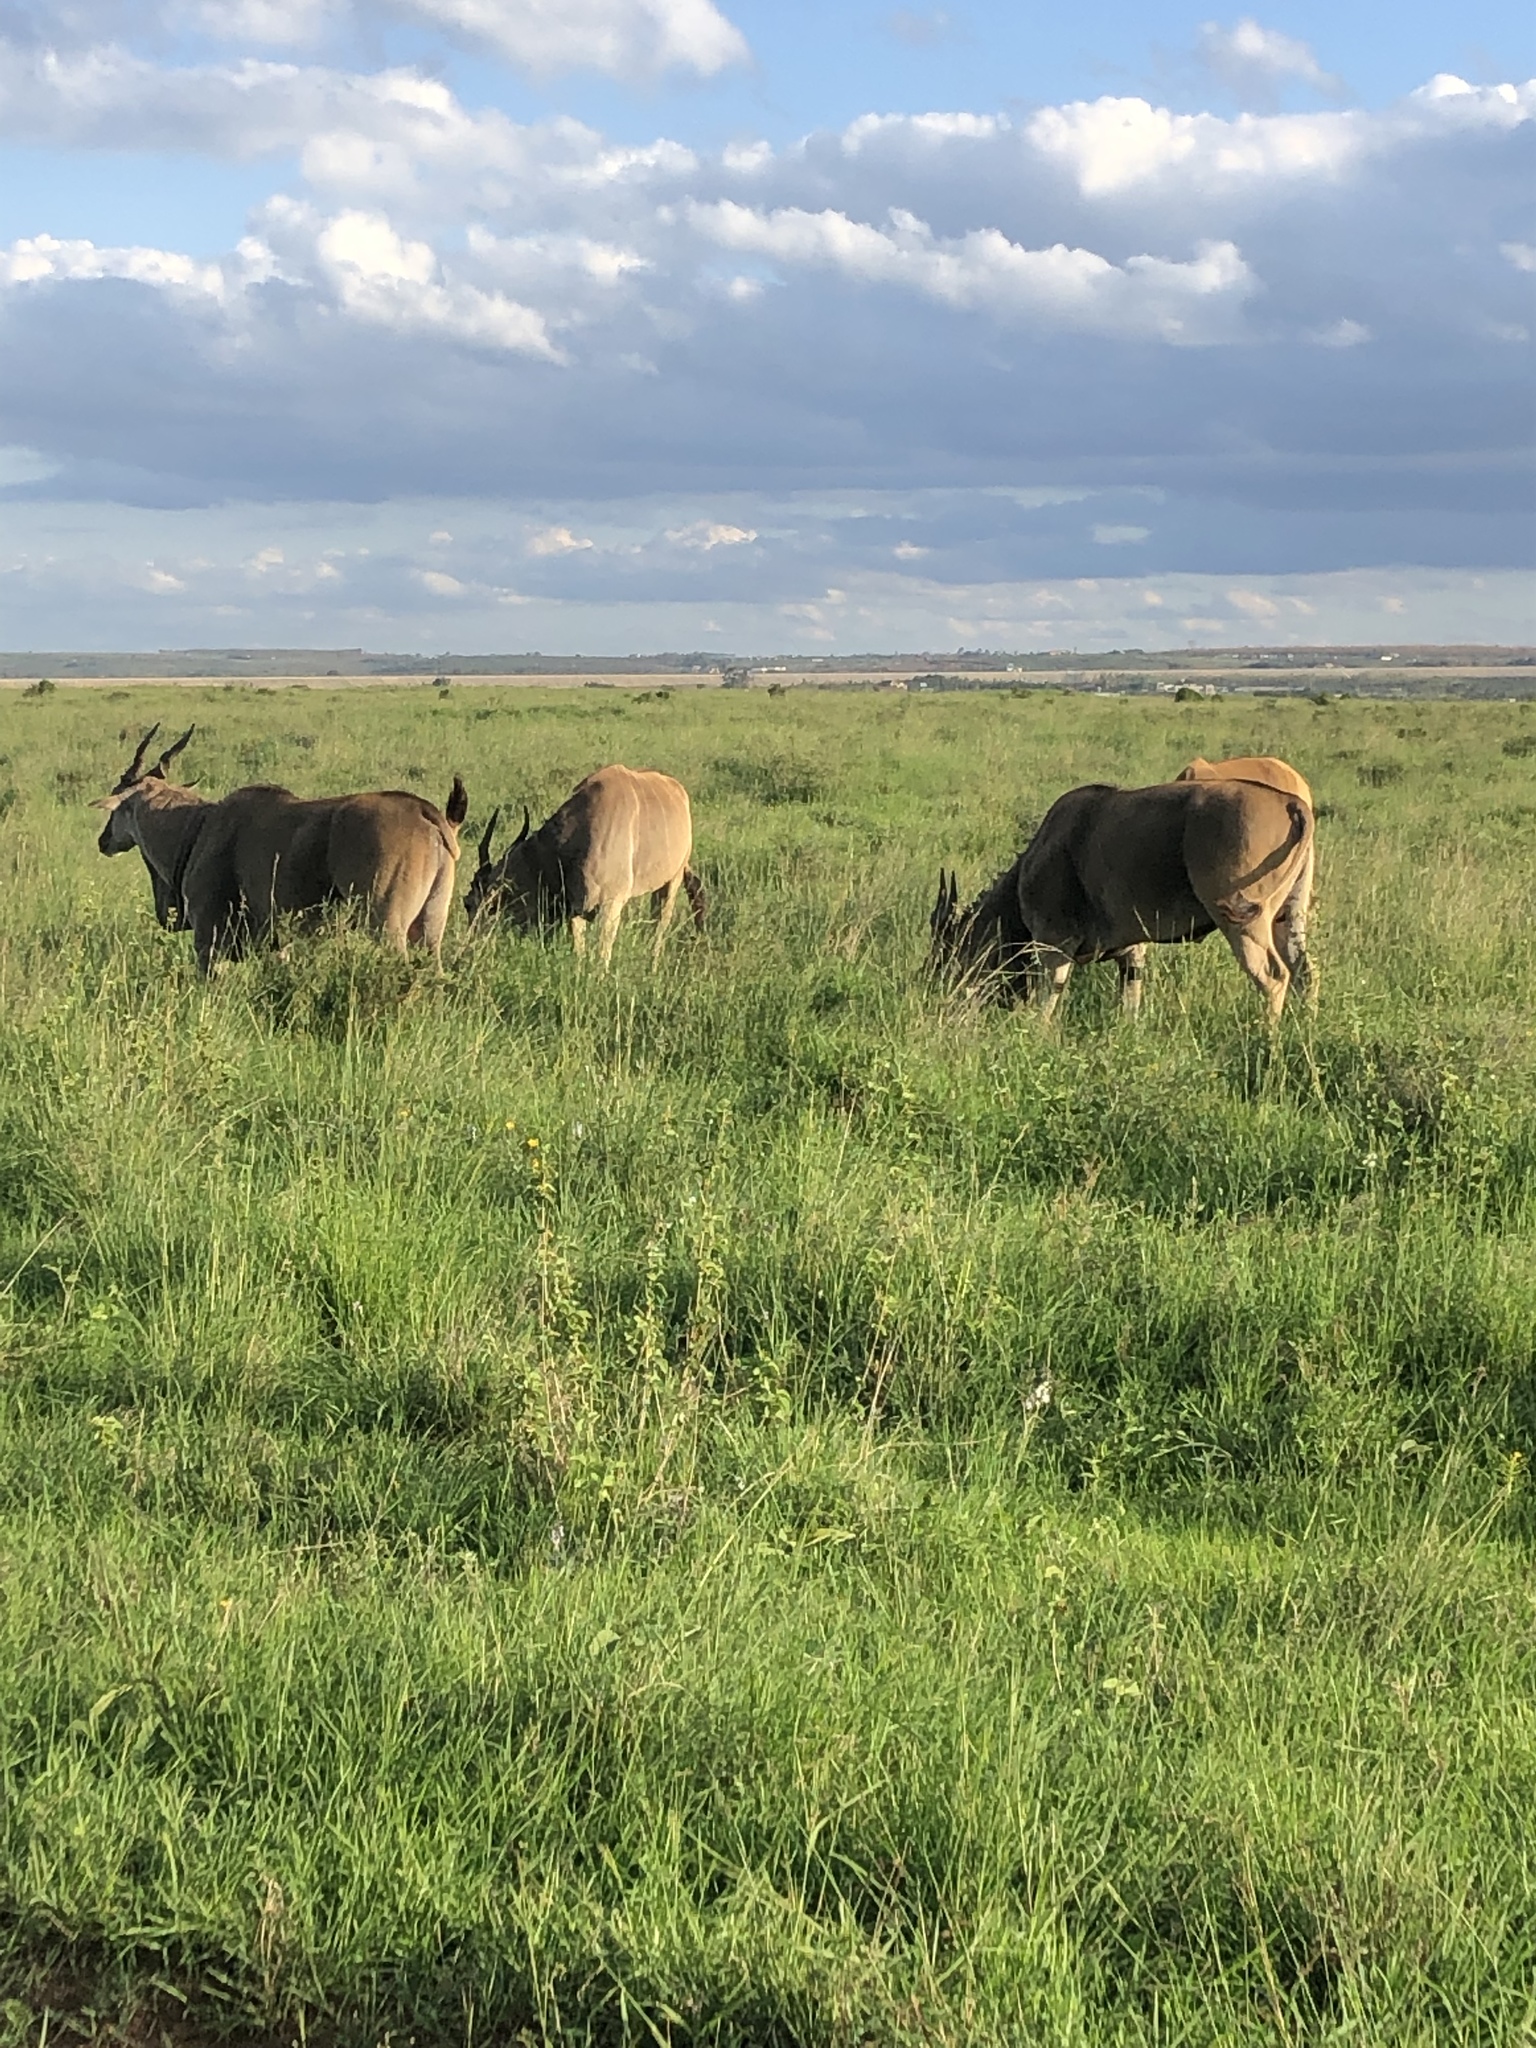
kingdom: Animalia
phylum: Chordata
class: Mammalia
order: Artiodactyla
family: Bovidae
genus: Taurotragus
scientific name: Taurotragus oryx
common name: Common eland
